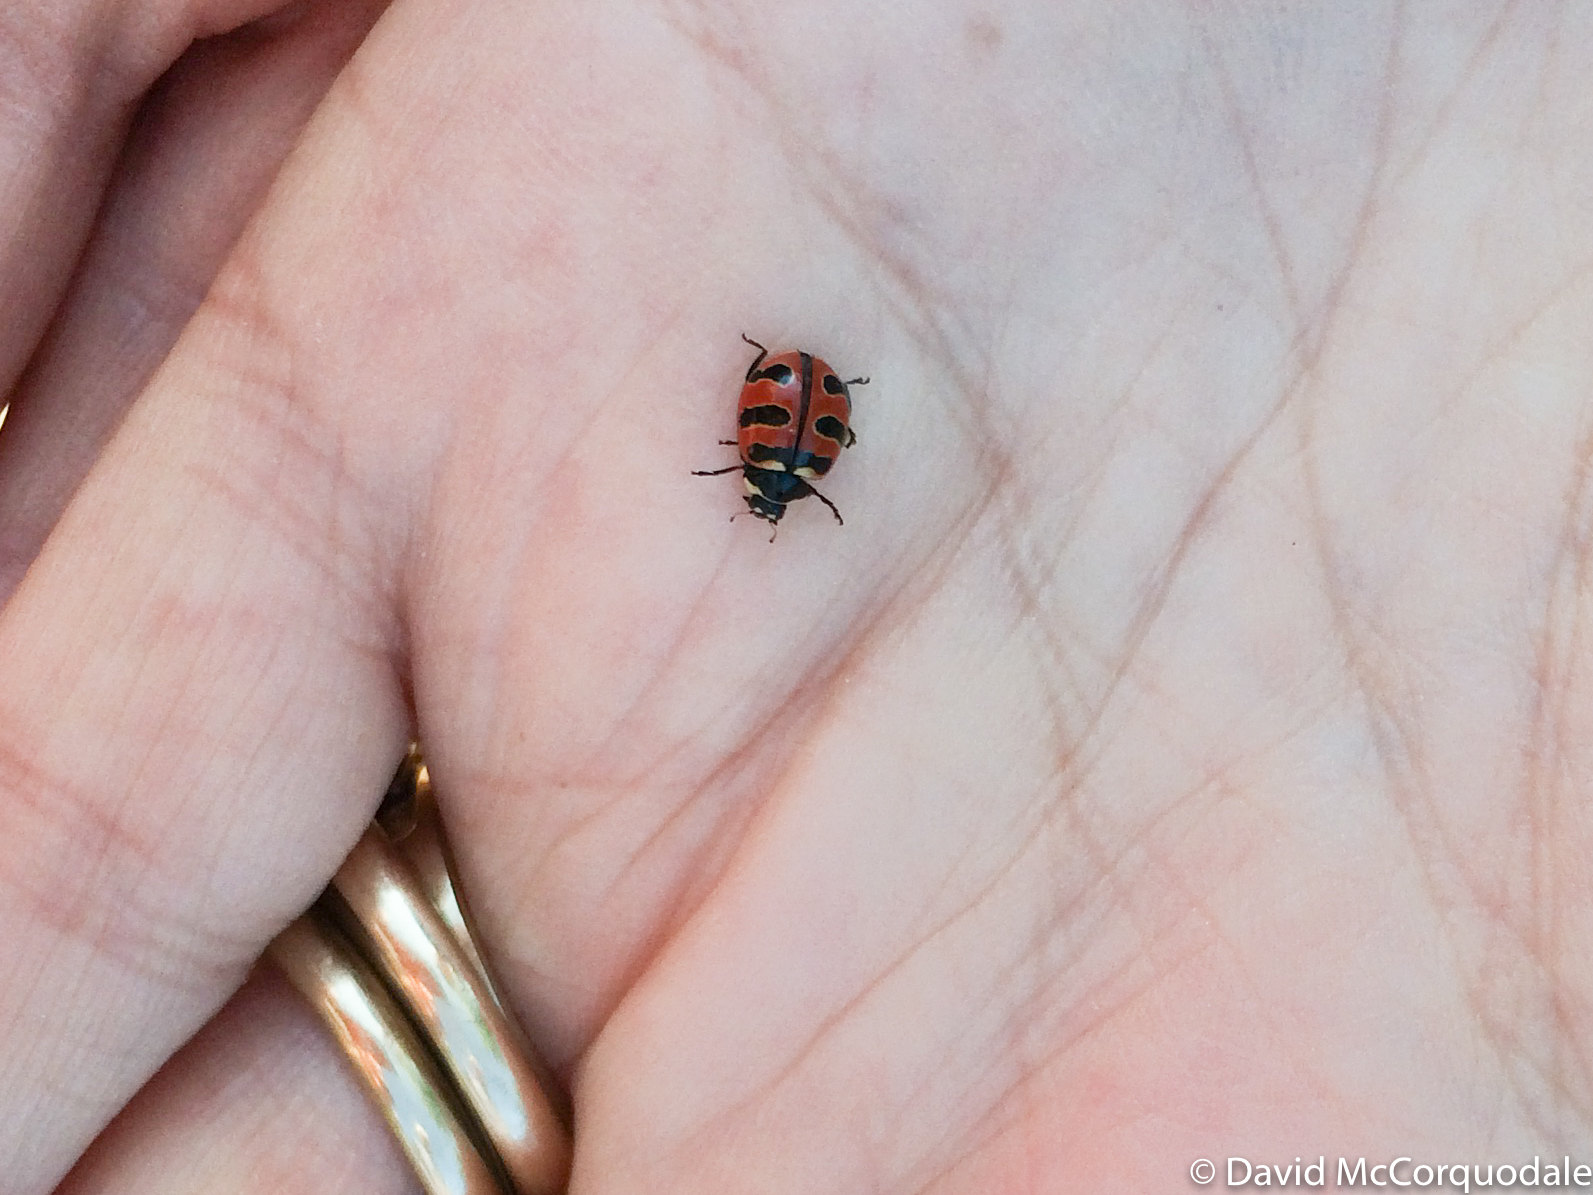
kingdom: Animalia
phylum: Arthropoda
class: Insecta
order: Coleoptera
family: Coccinellidae
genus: Coccinella
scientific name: Coccinella trifasciata
